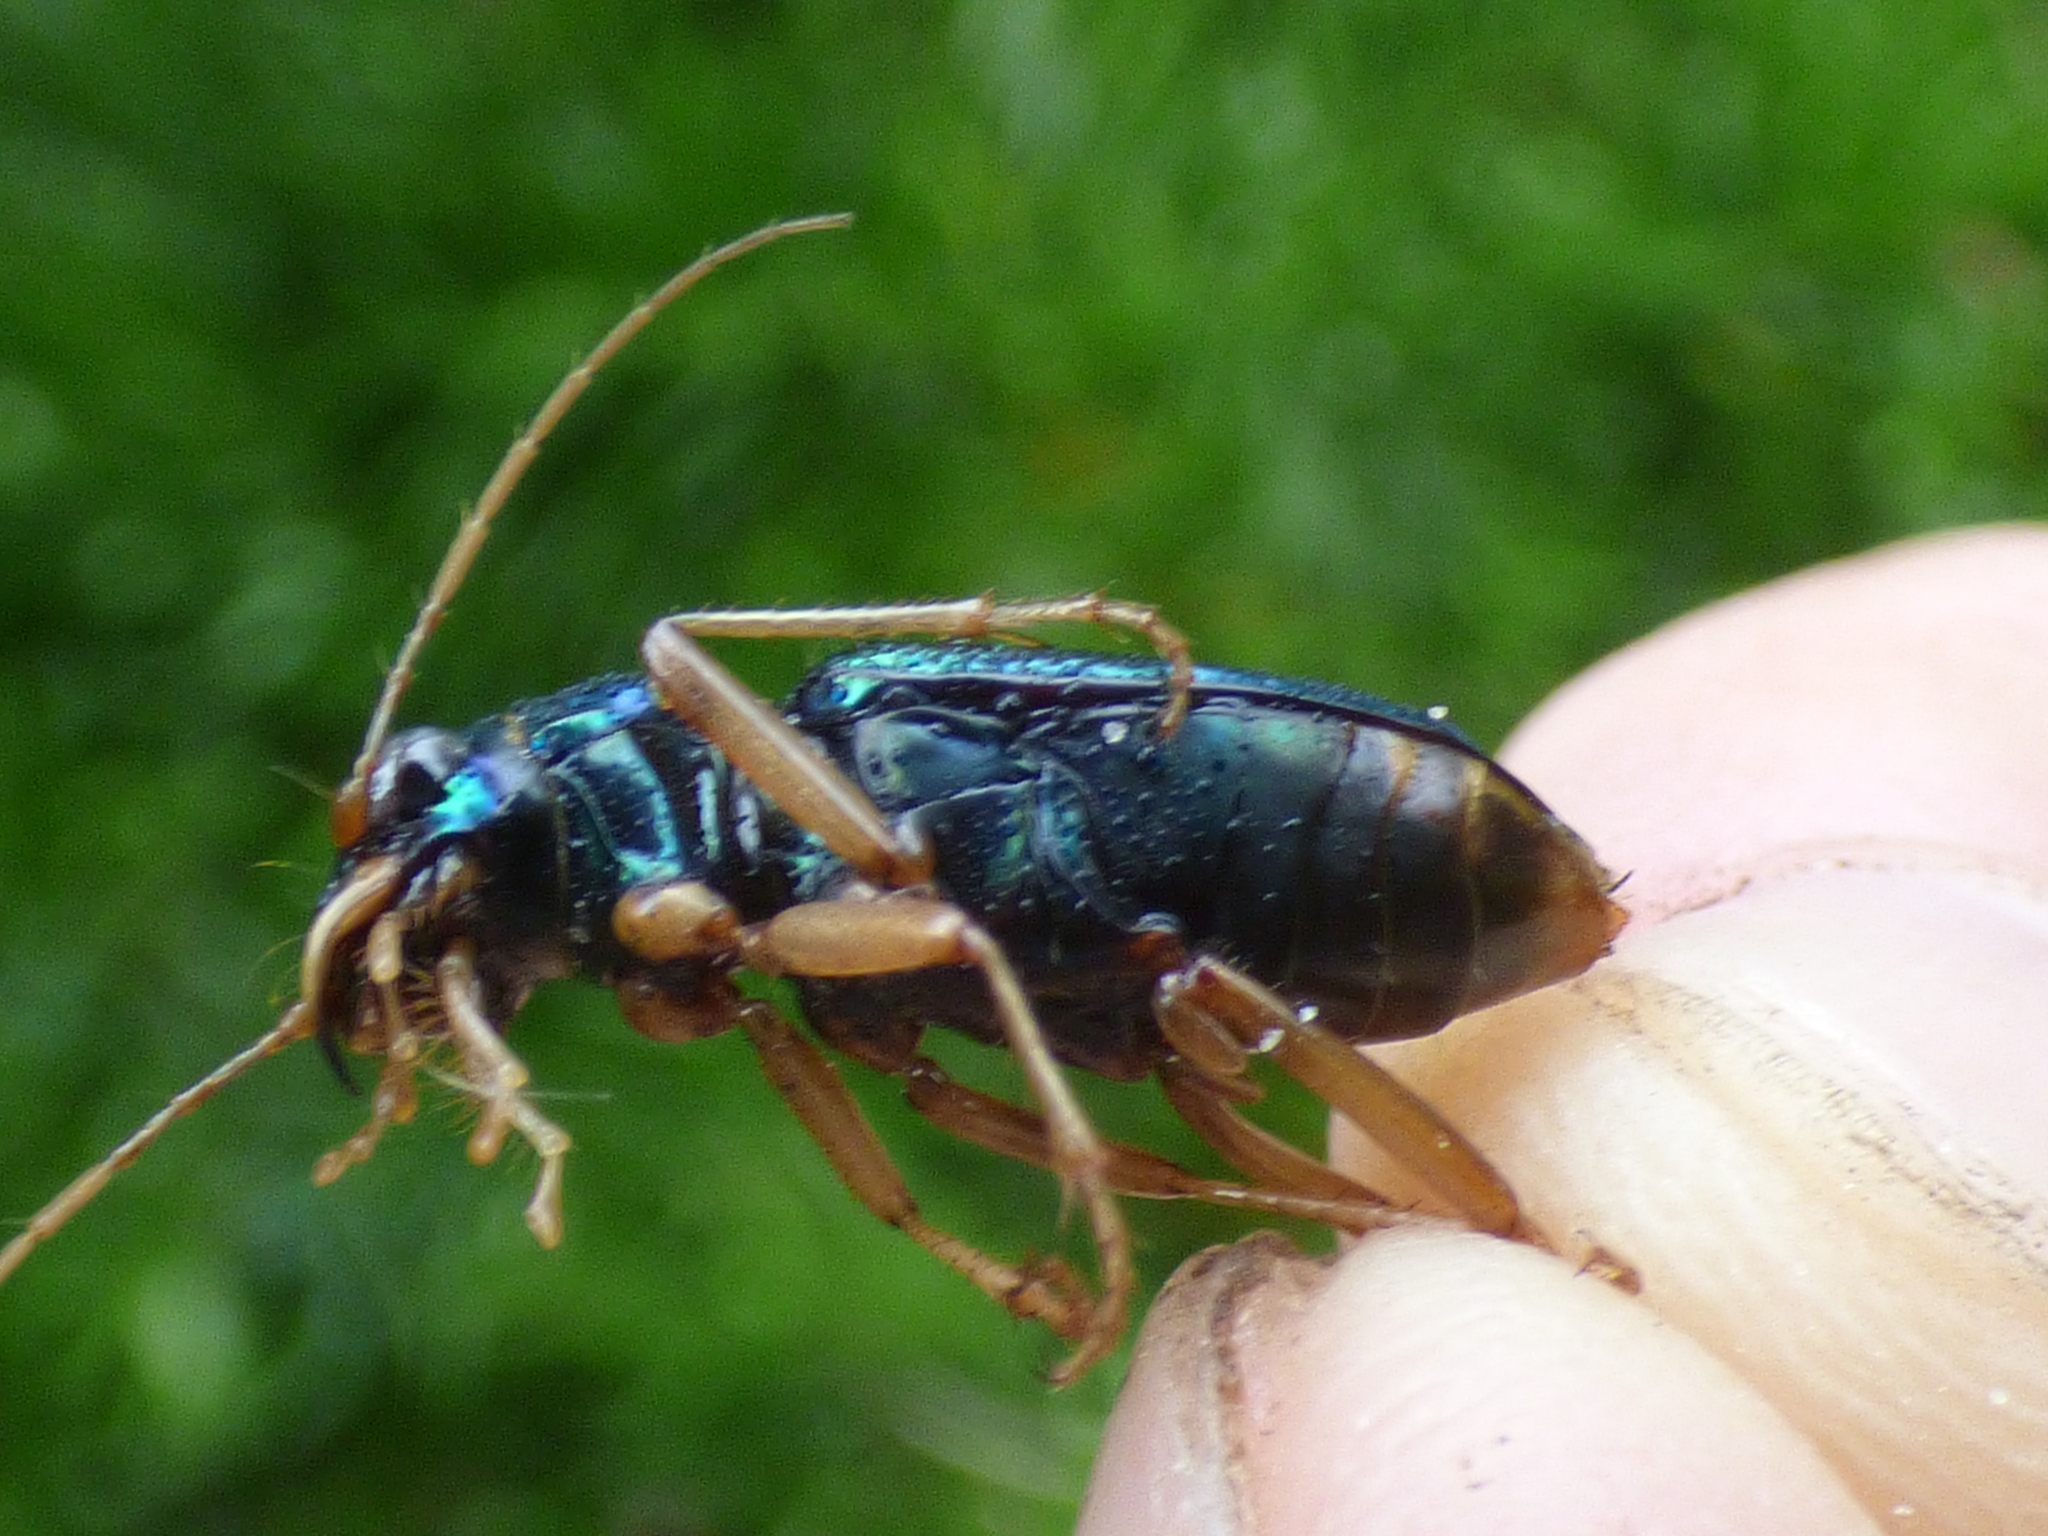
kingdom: Animalia
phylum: Arthropoda
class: Insecta
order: Coleoptera
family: Carabidae
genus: Tetracha
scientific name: Tetracha virginica
